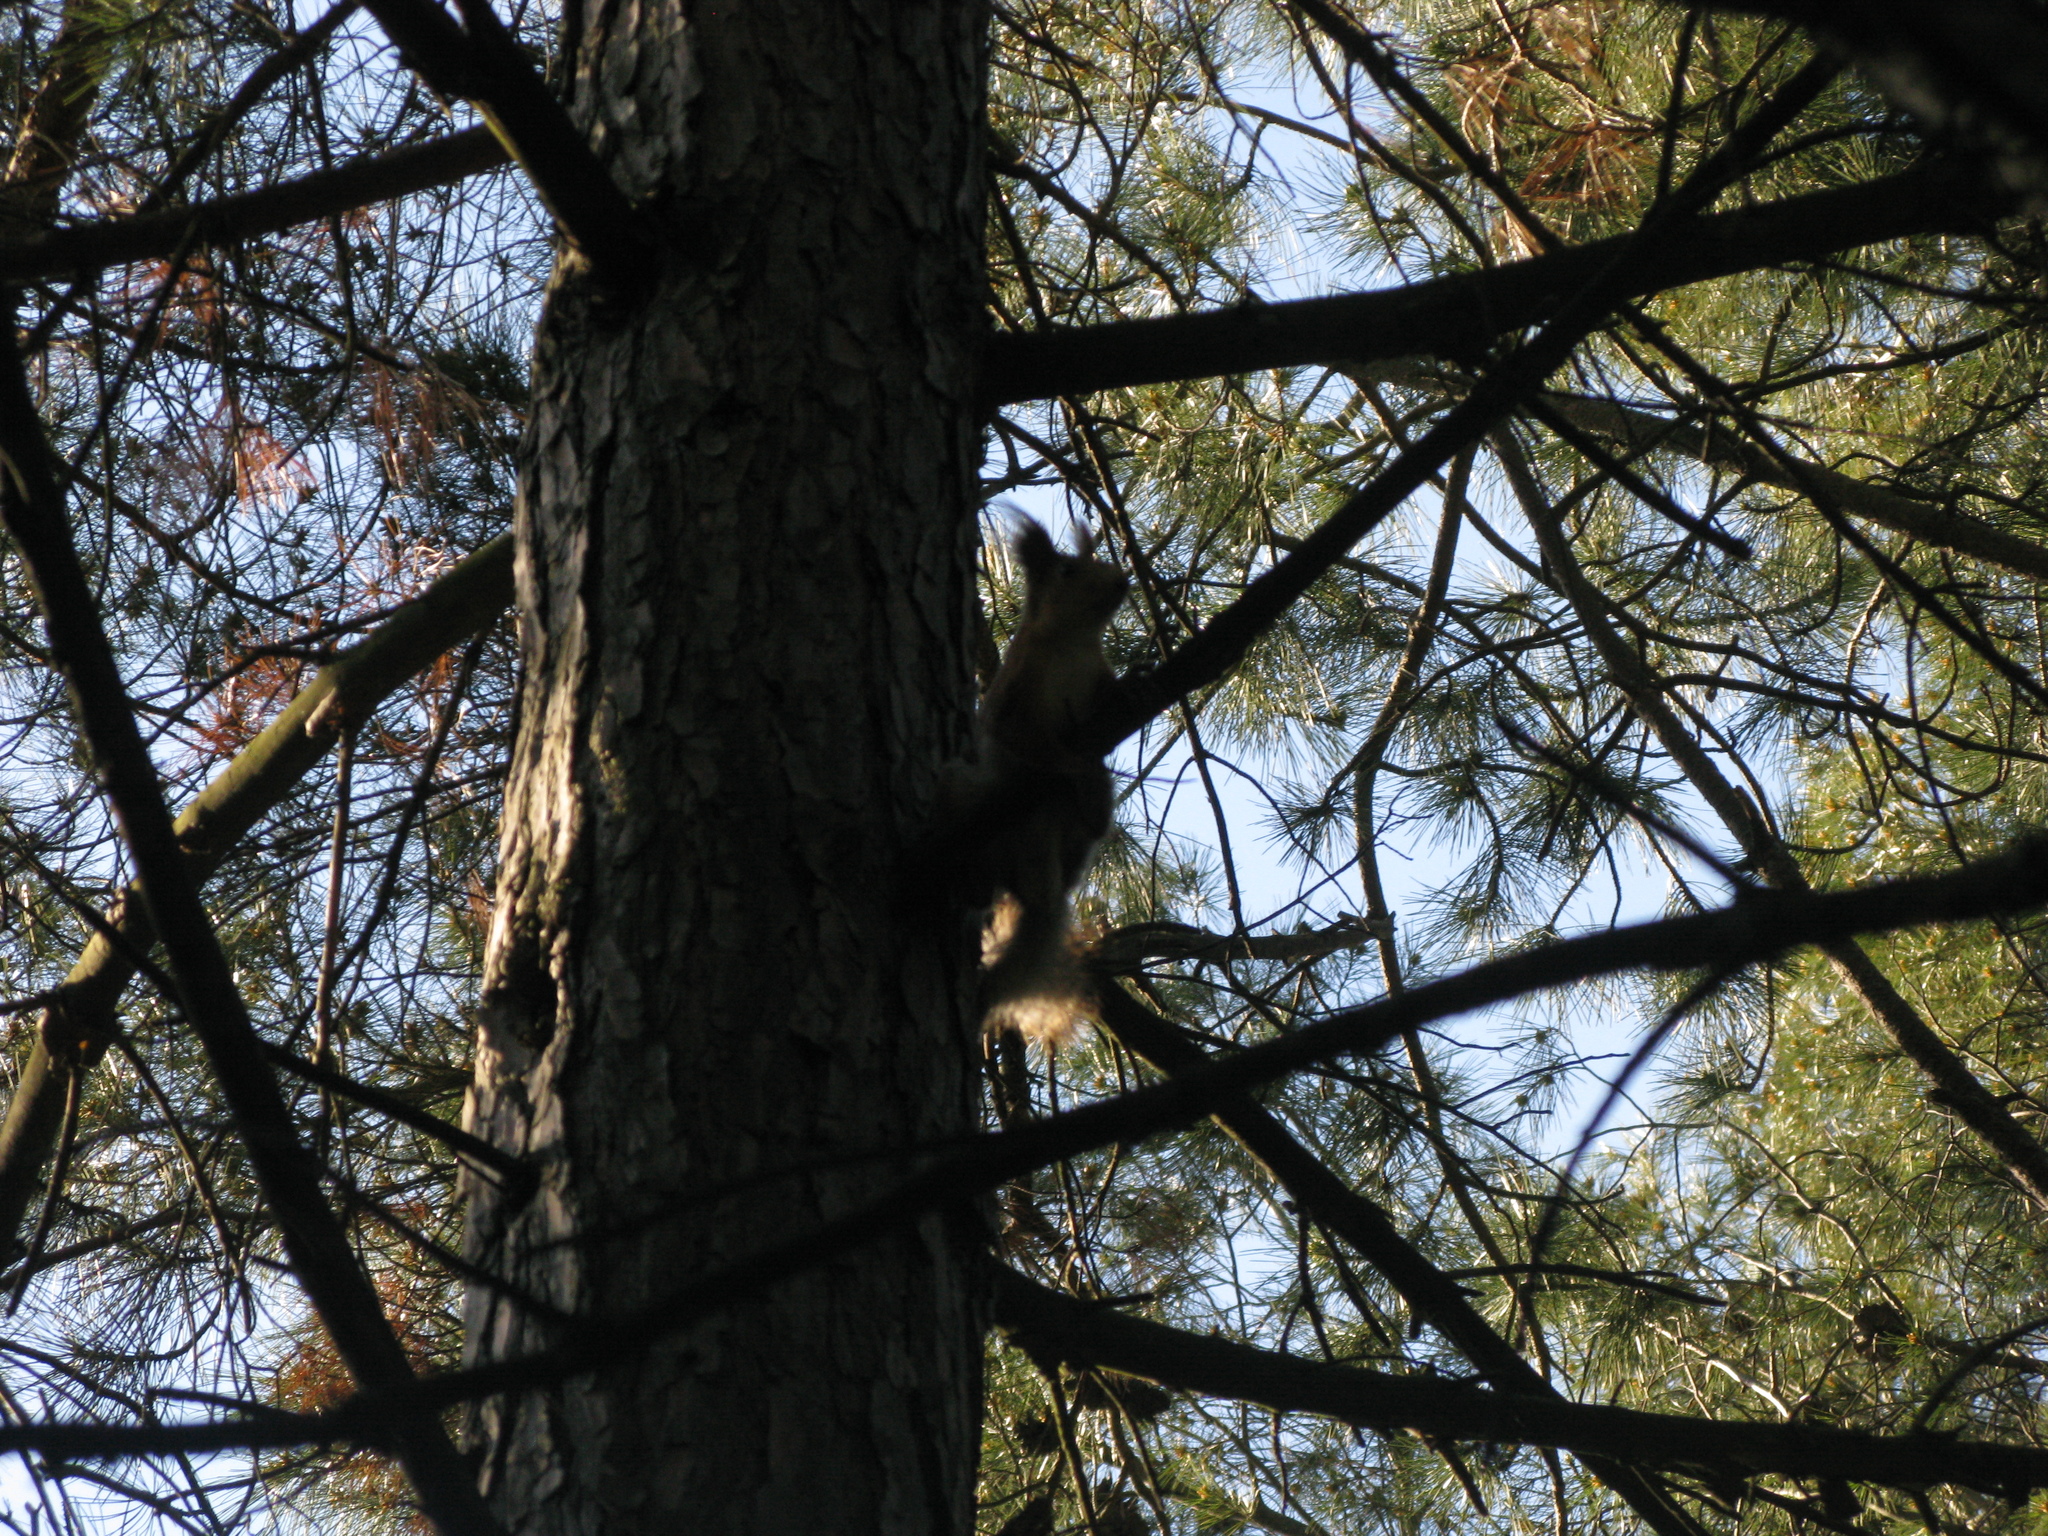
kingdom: Animalia
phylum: Chordata
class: Mammalia
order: Rodentia
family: Sciuridae
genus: Sciurus
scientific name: Sciurus vulgaris
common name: Eurasian red squirrel
